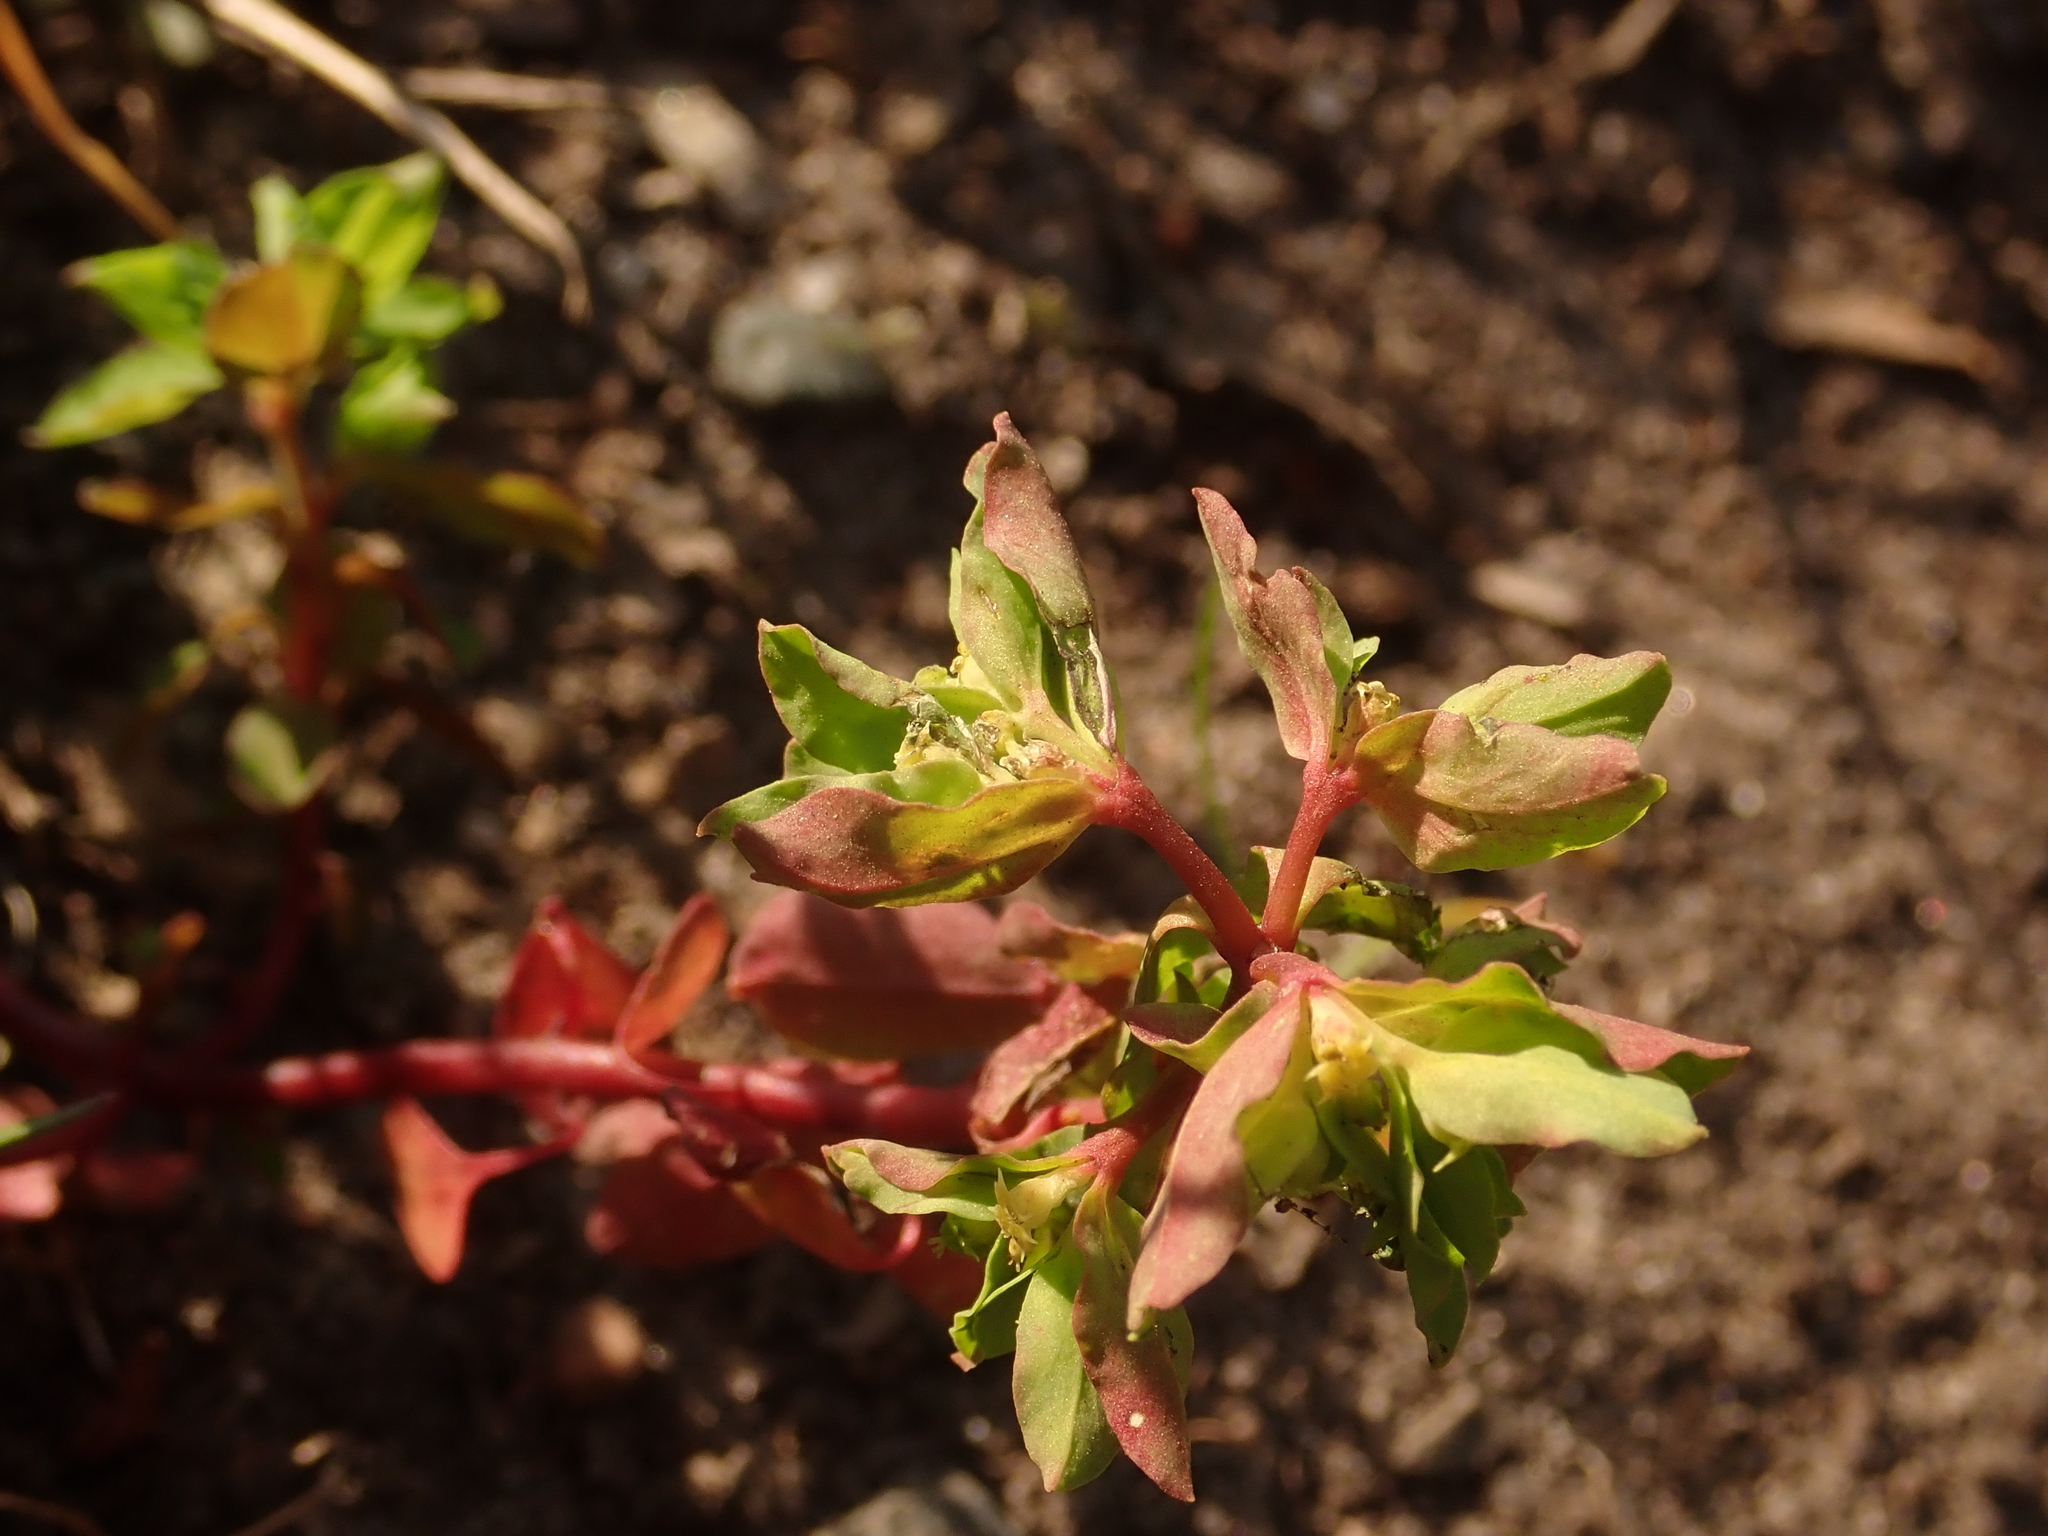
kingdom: Plantae
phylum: Tracheophyta
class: Magnoliopsida
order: Malpighiales
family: Euphorbiaceae
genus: Euphorbia
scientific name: Euphorbia peplus
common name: Petty spurge
